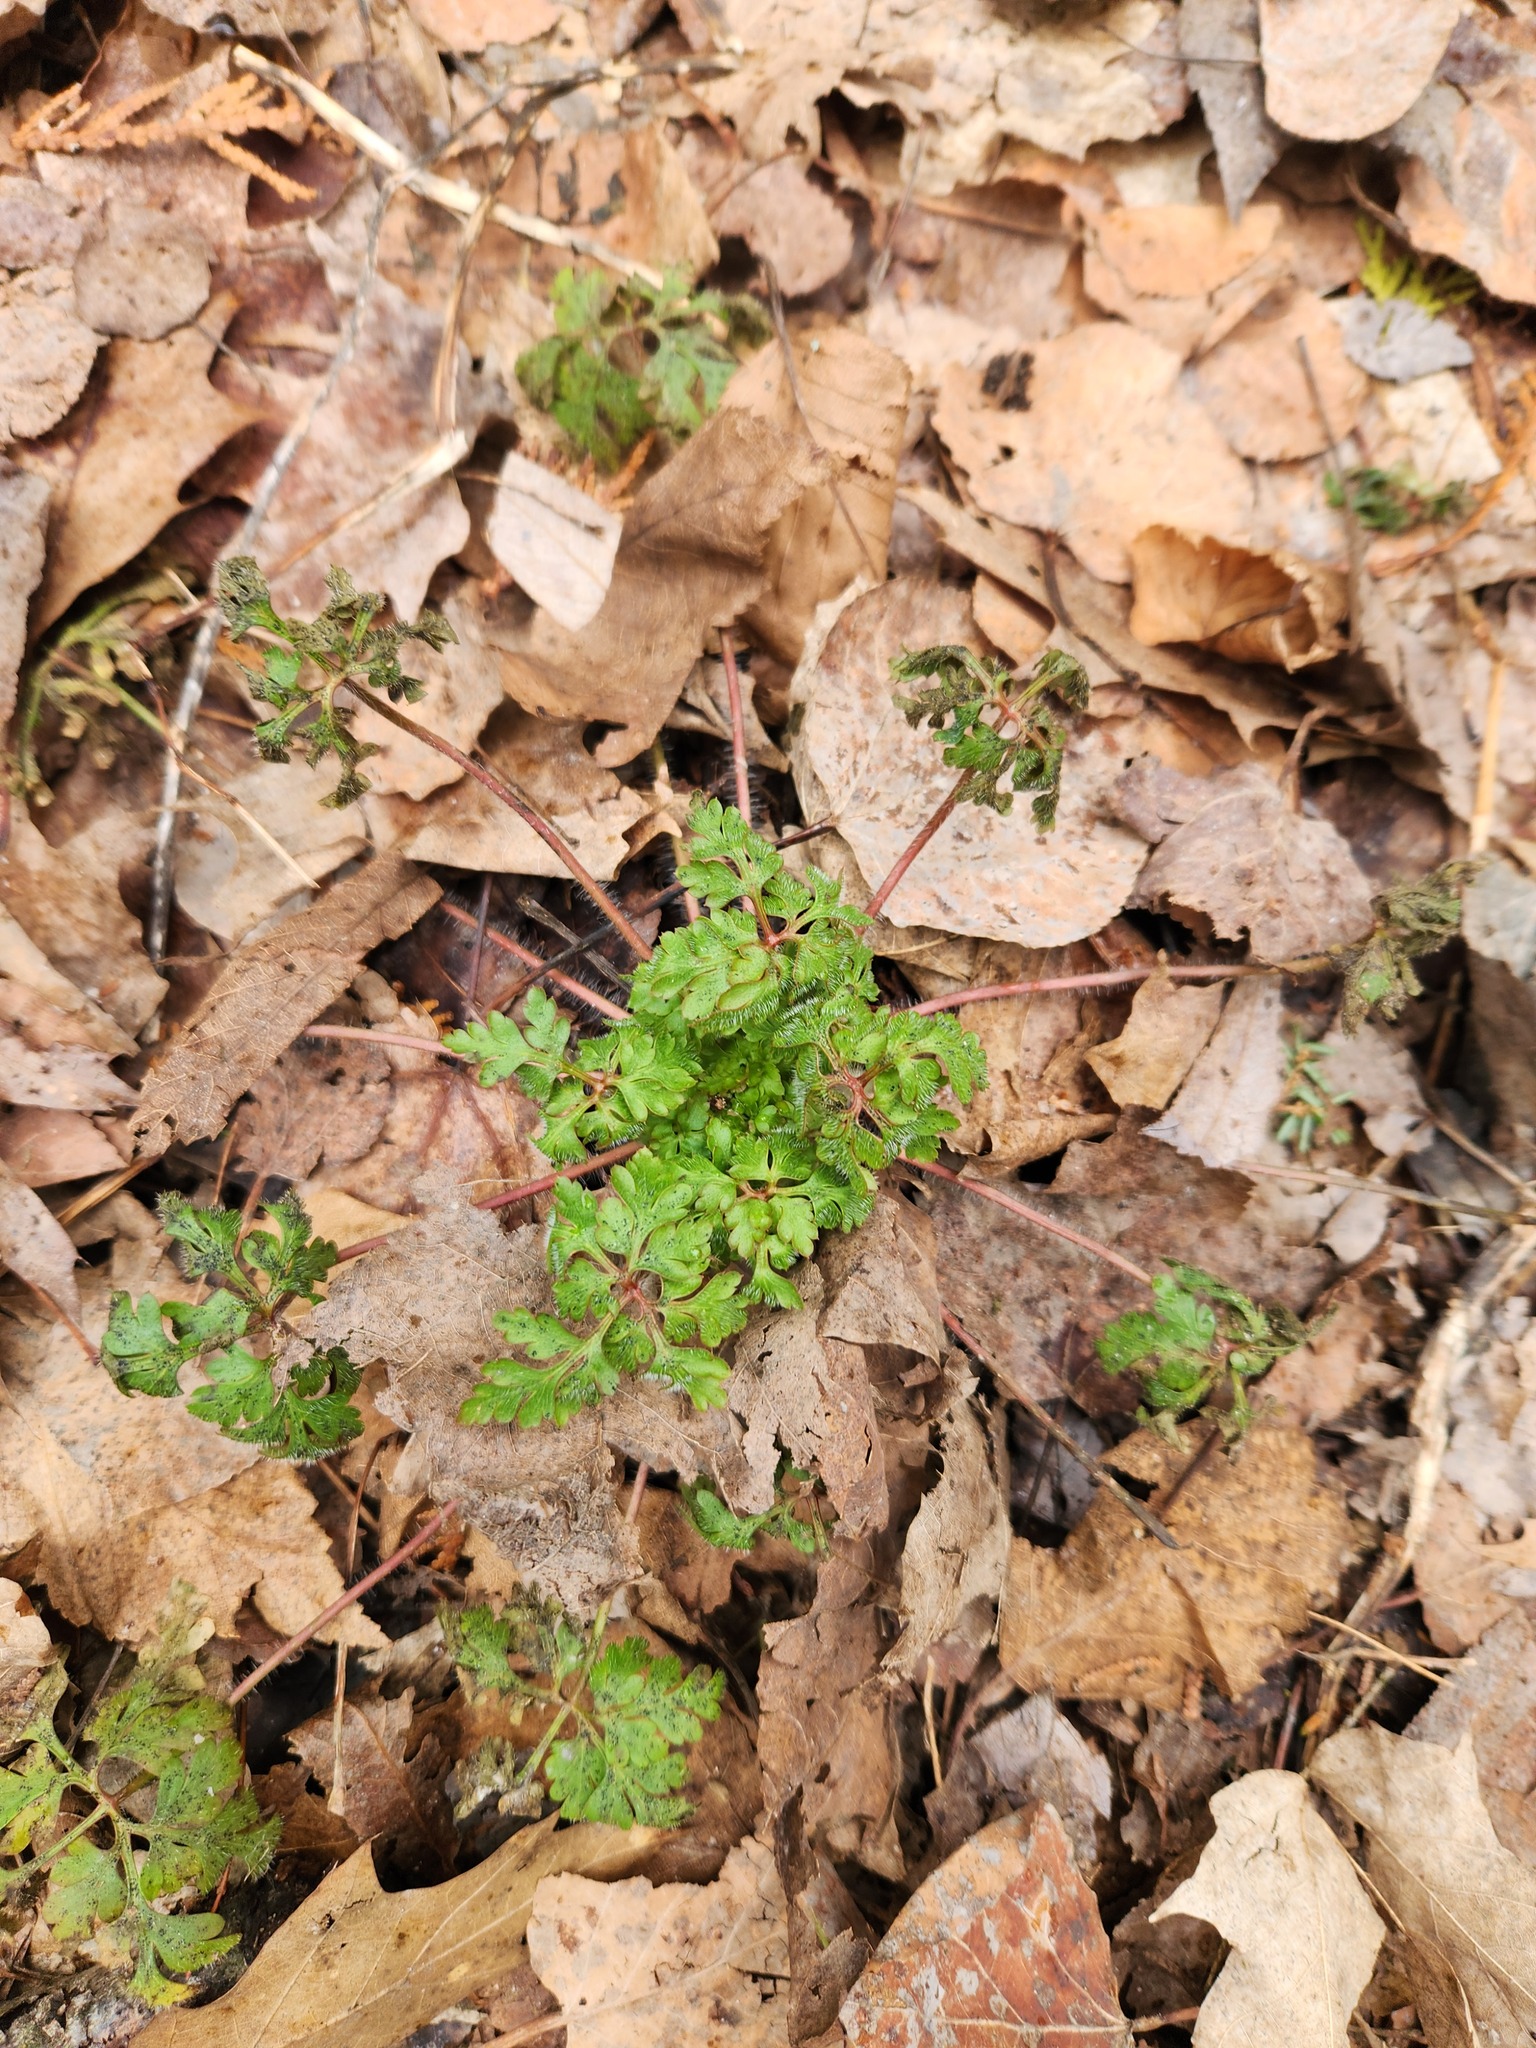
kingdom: Plantae
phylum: Tracheophyta
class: Magnoliopsida
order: Geraniales
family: Geraniaceae
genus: Geranium
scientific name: Geranium robertianum
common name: Herb-robert
